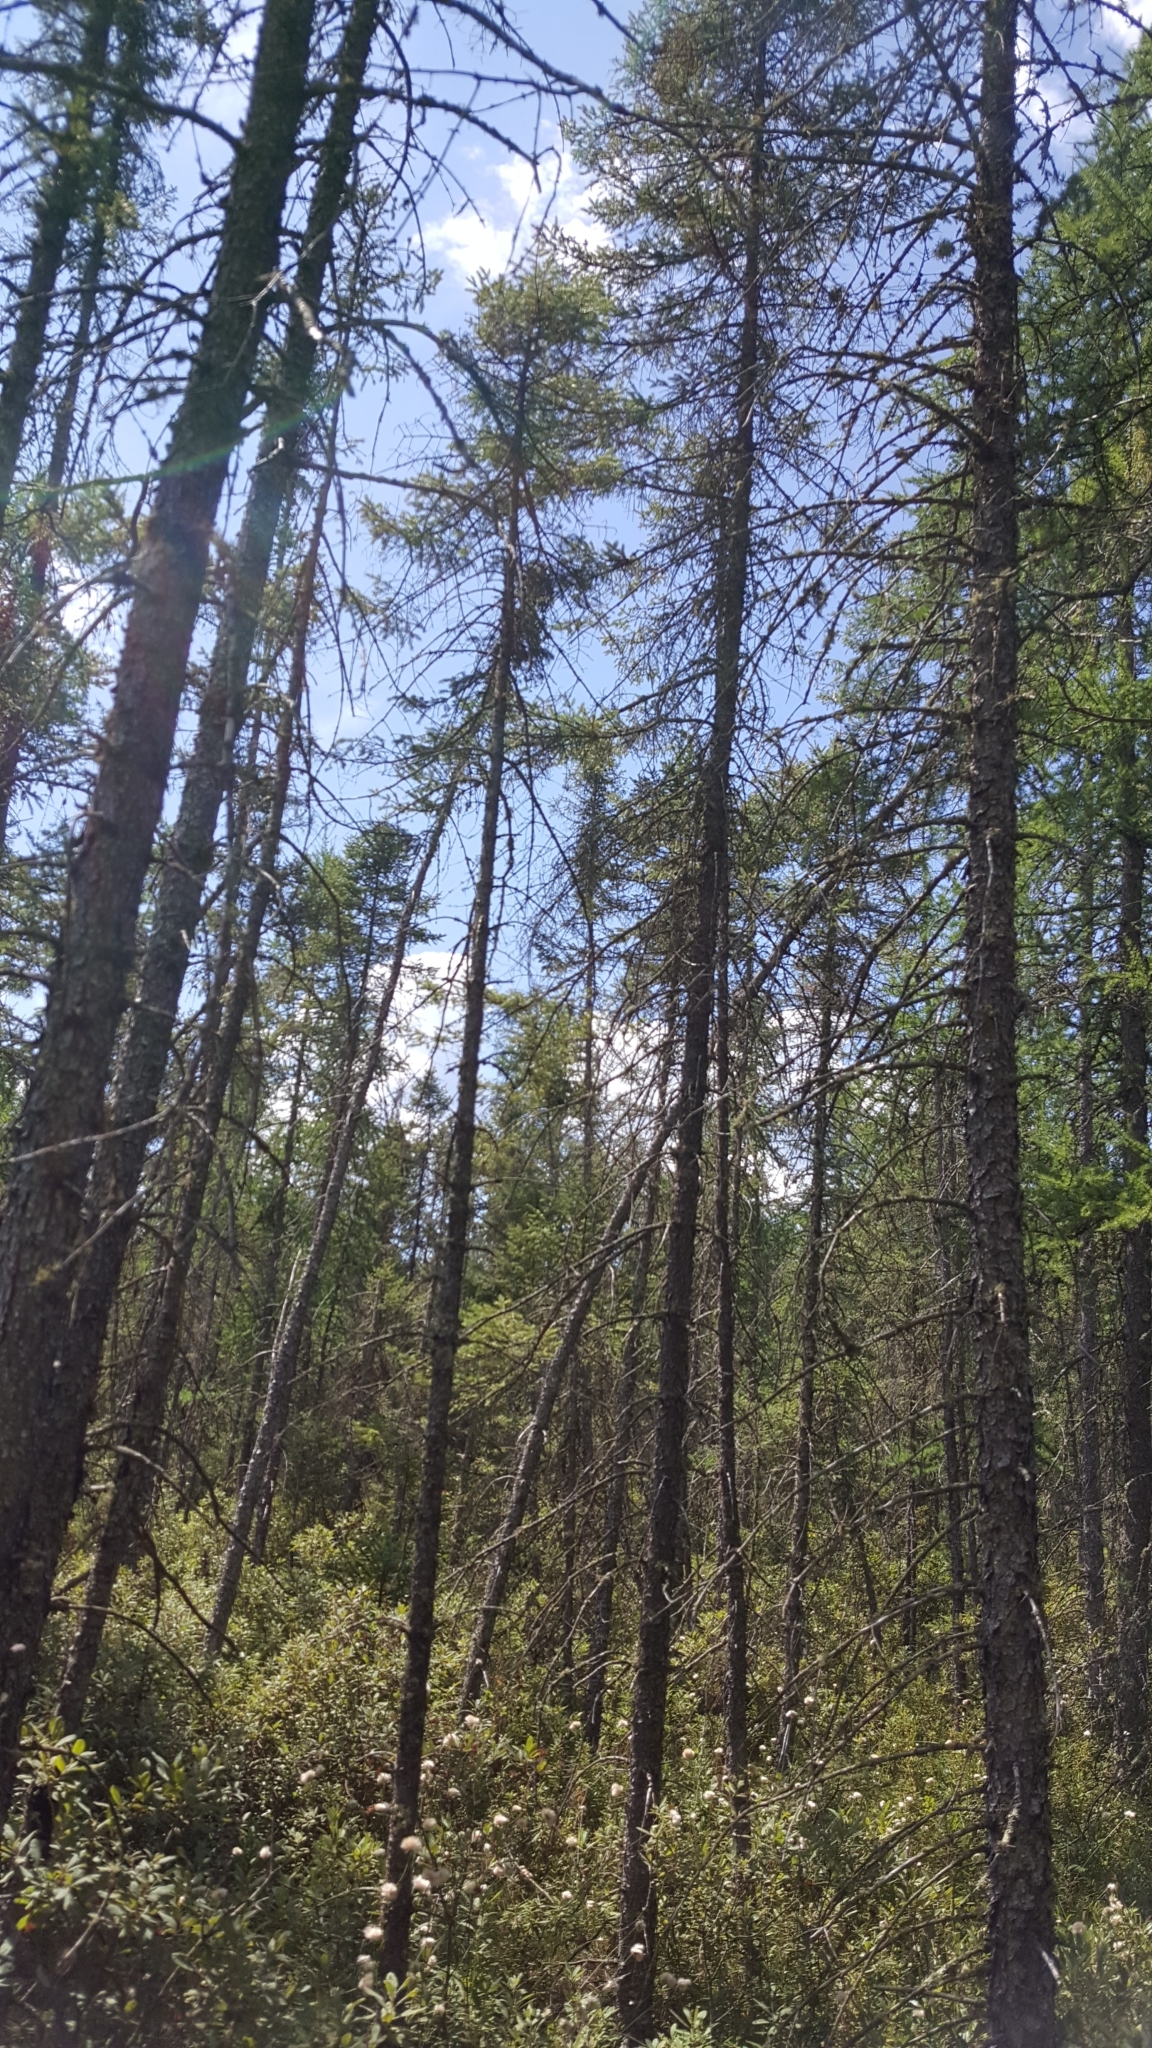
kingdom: Plantae
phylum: Tracheophyta
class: Pinopsida
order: Pinales
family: Pinaceae
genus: Picea
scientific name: Picea mariana
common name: Black spruce
